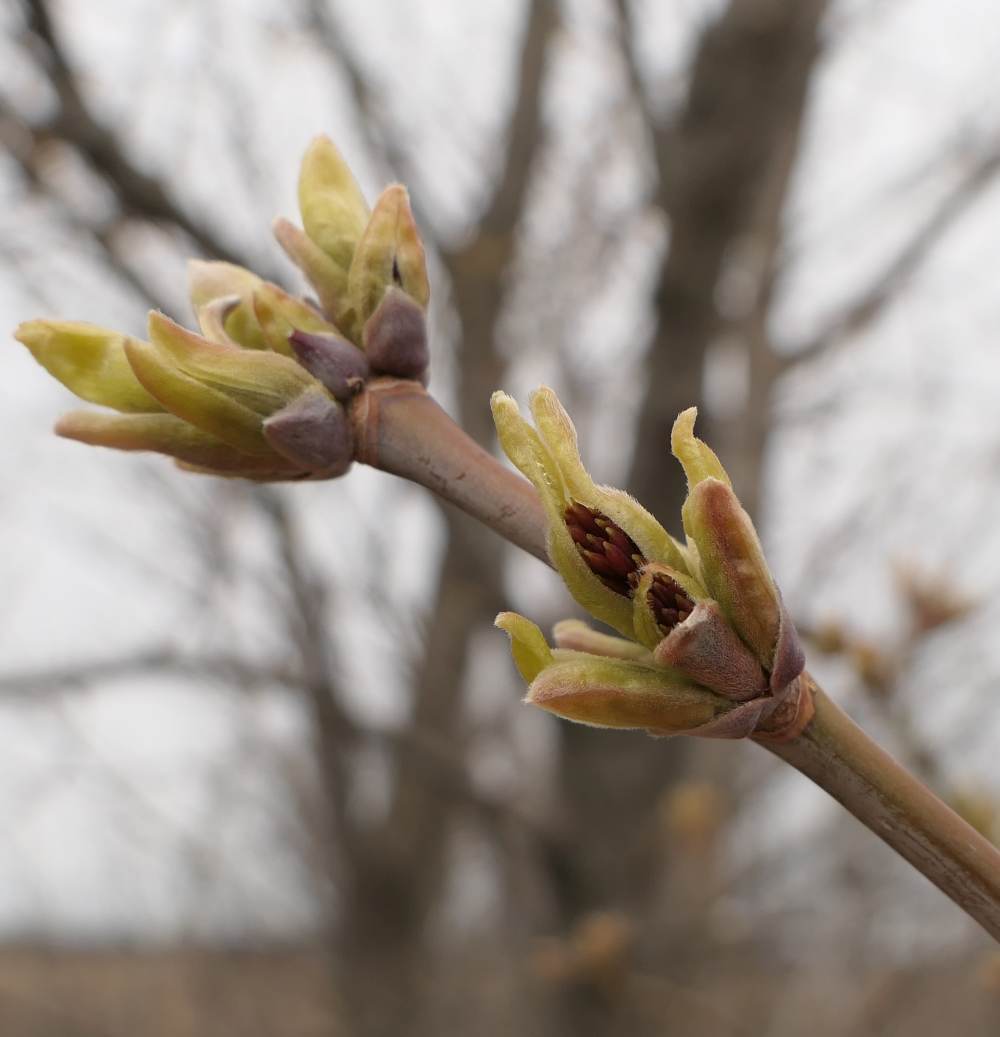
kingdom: Plantae
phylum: Tracheophyta
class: Magnoliopsida
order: Sapindales
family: Sapindaceae
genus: Acer
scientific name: Acer negundo
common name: Ashleaf maple
